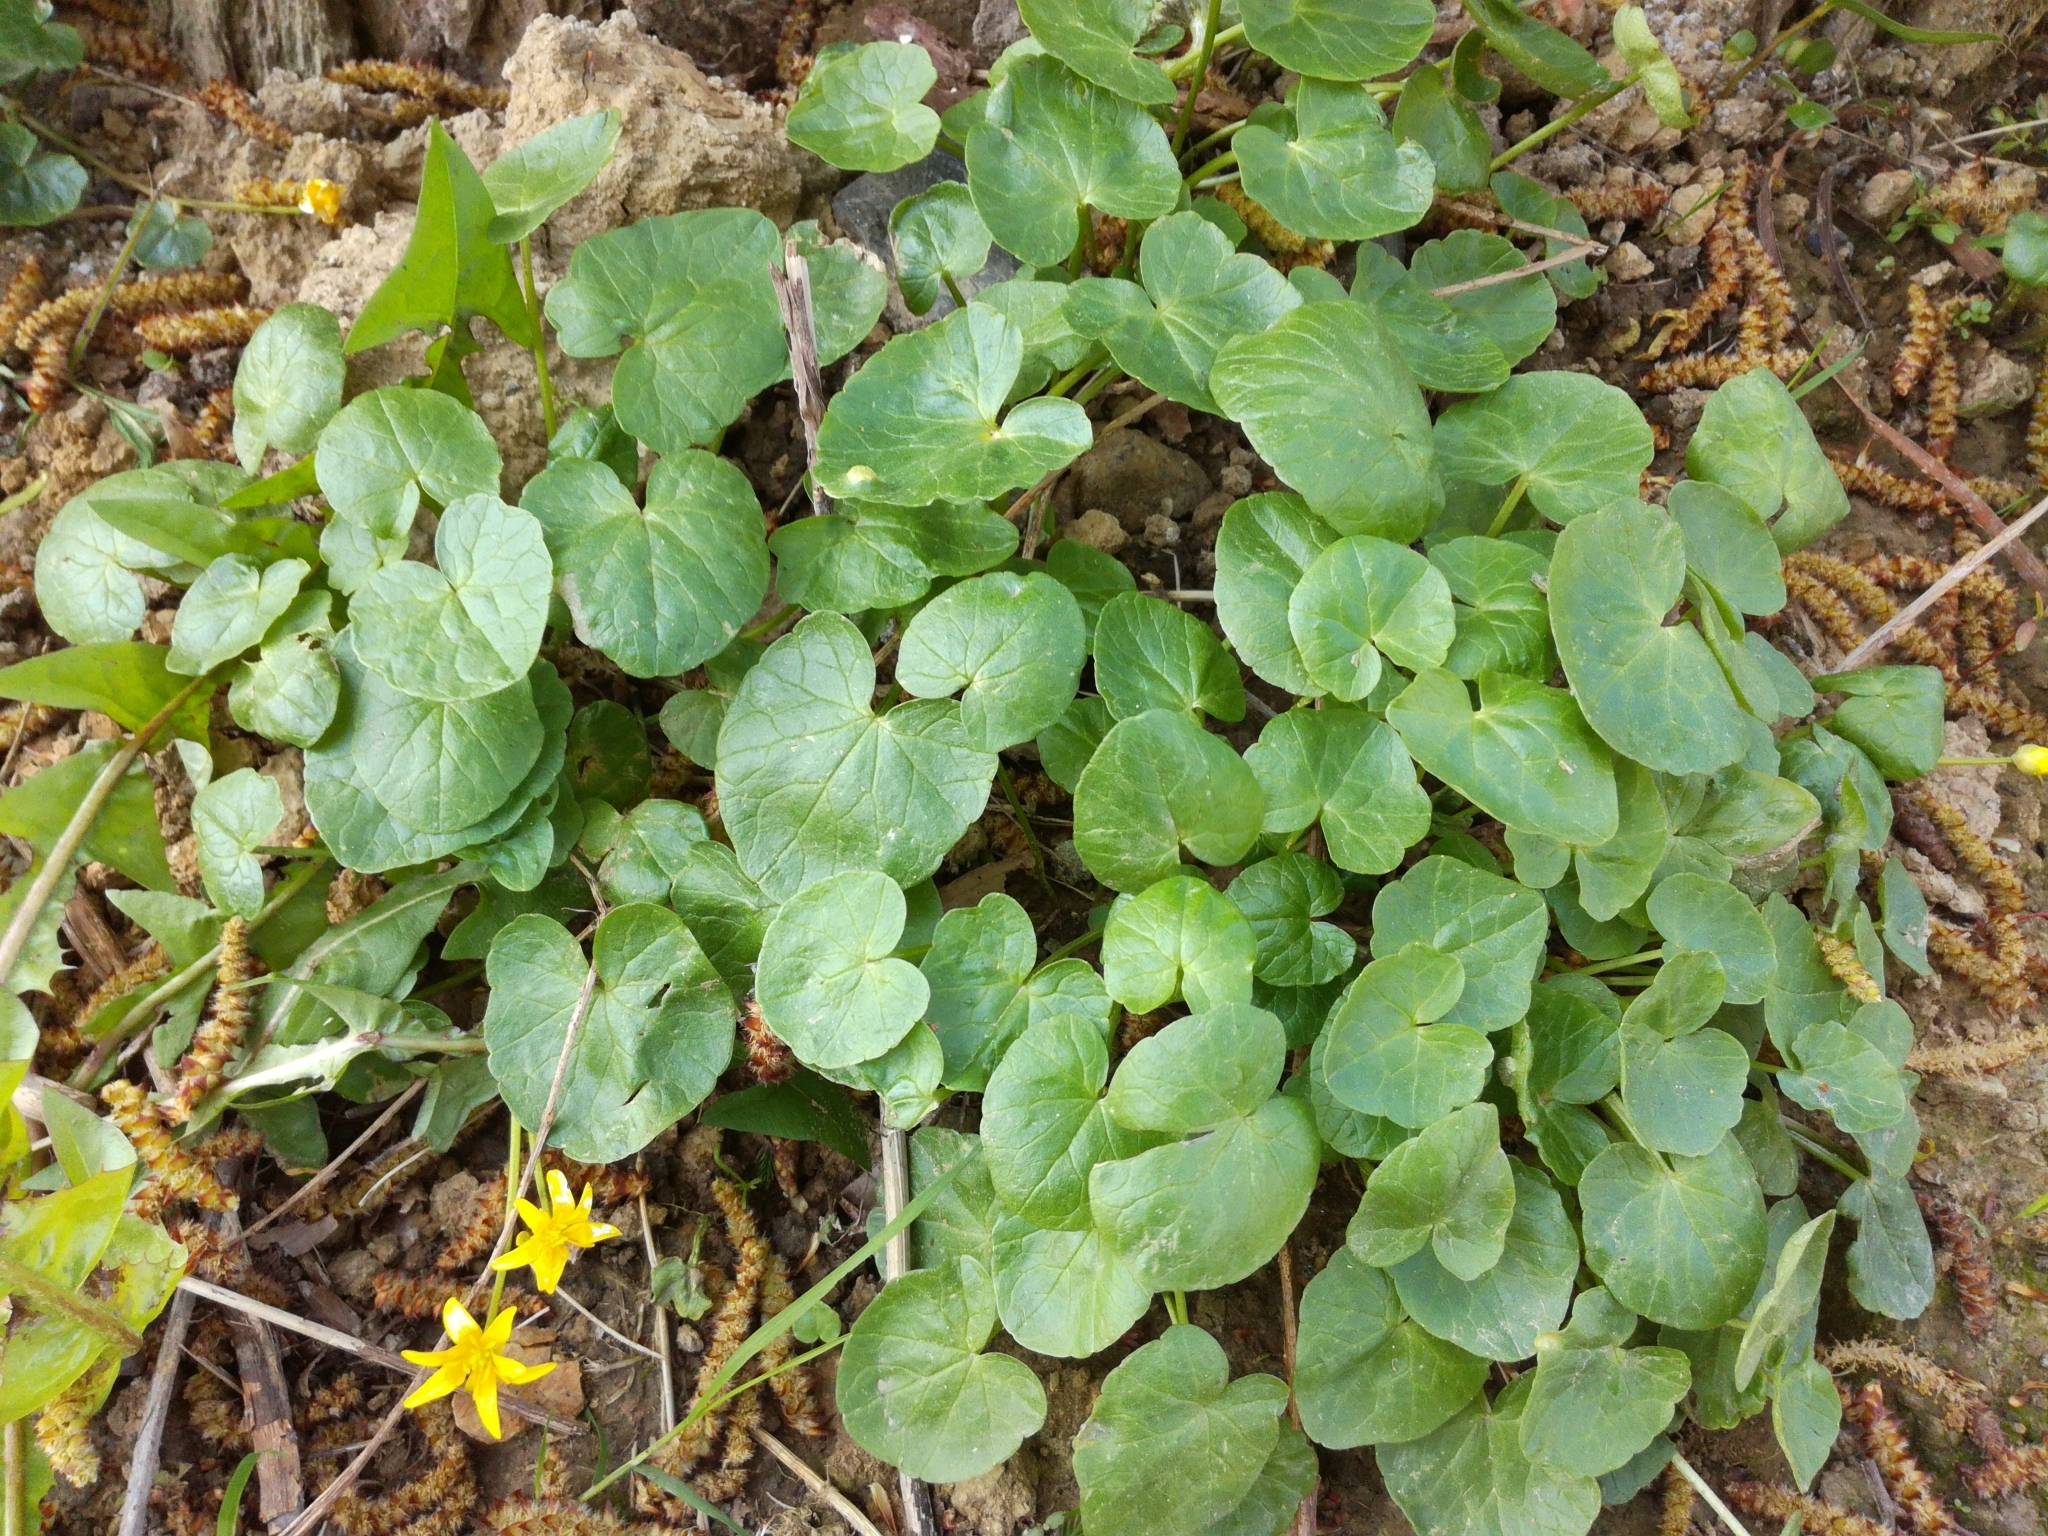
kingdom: Plantae
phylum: Tracheophyta
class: Magnoliopsida
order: Ranunculales
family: Ranunculaceae
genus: Ficaria
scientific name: Ficaria verna
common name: Lesser celandine
